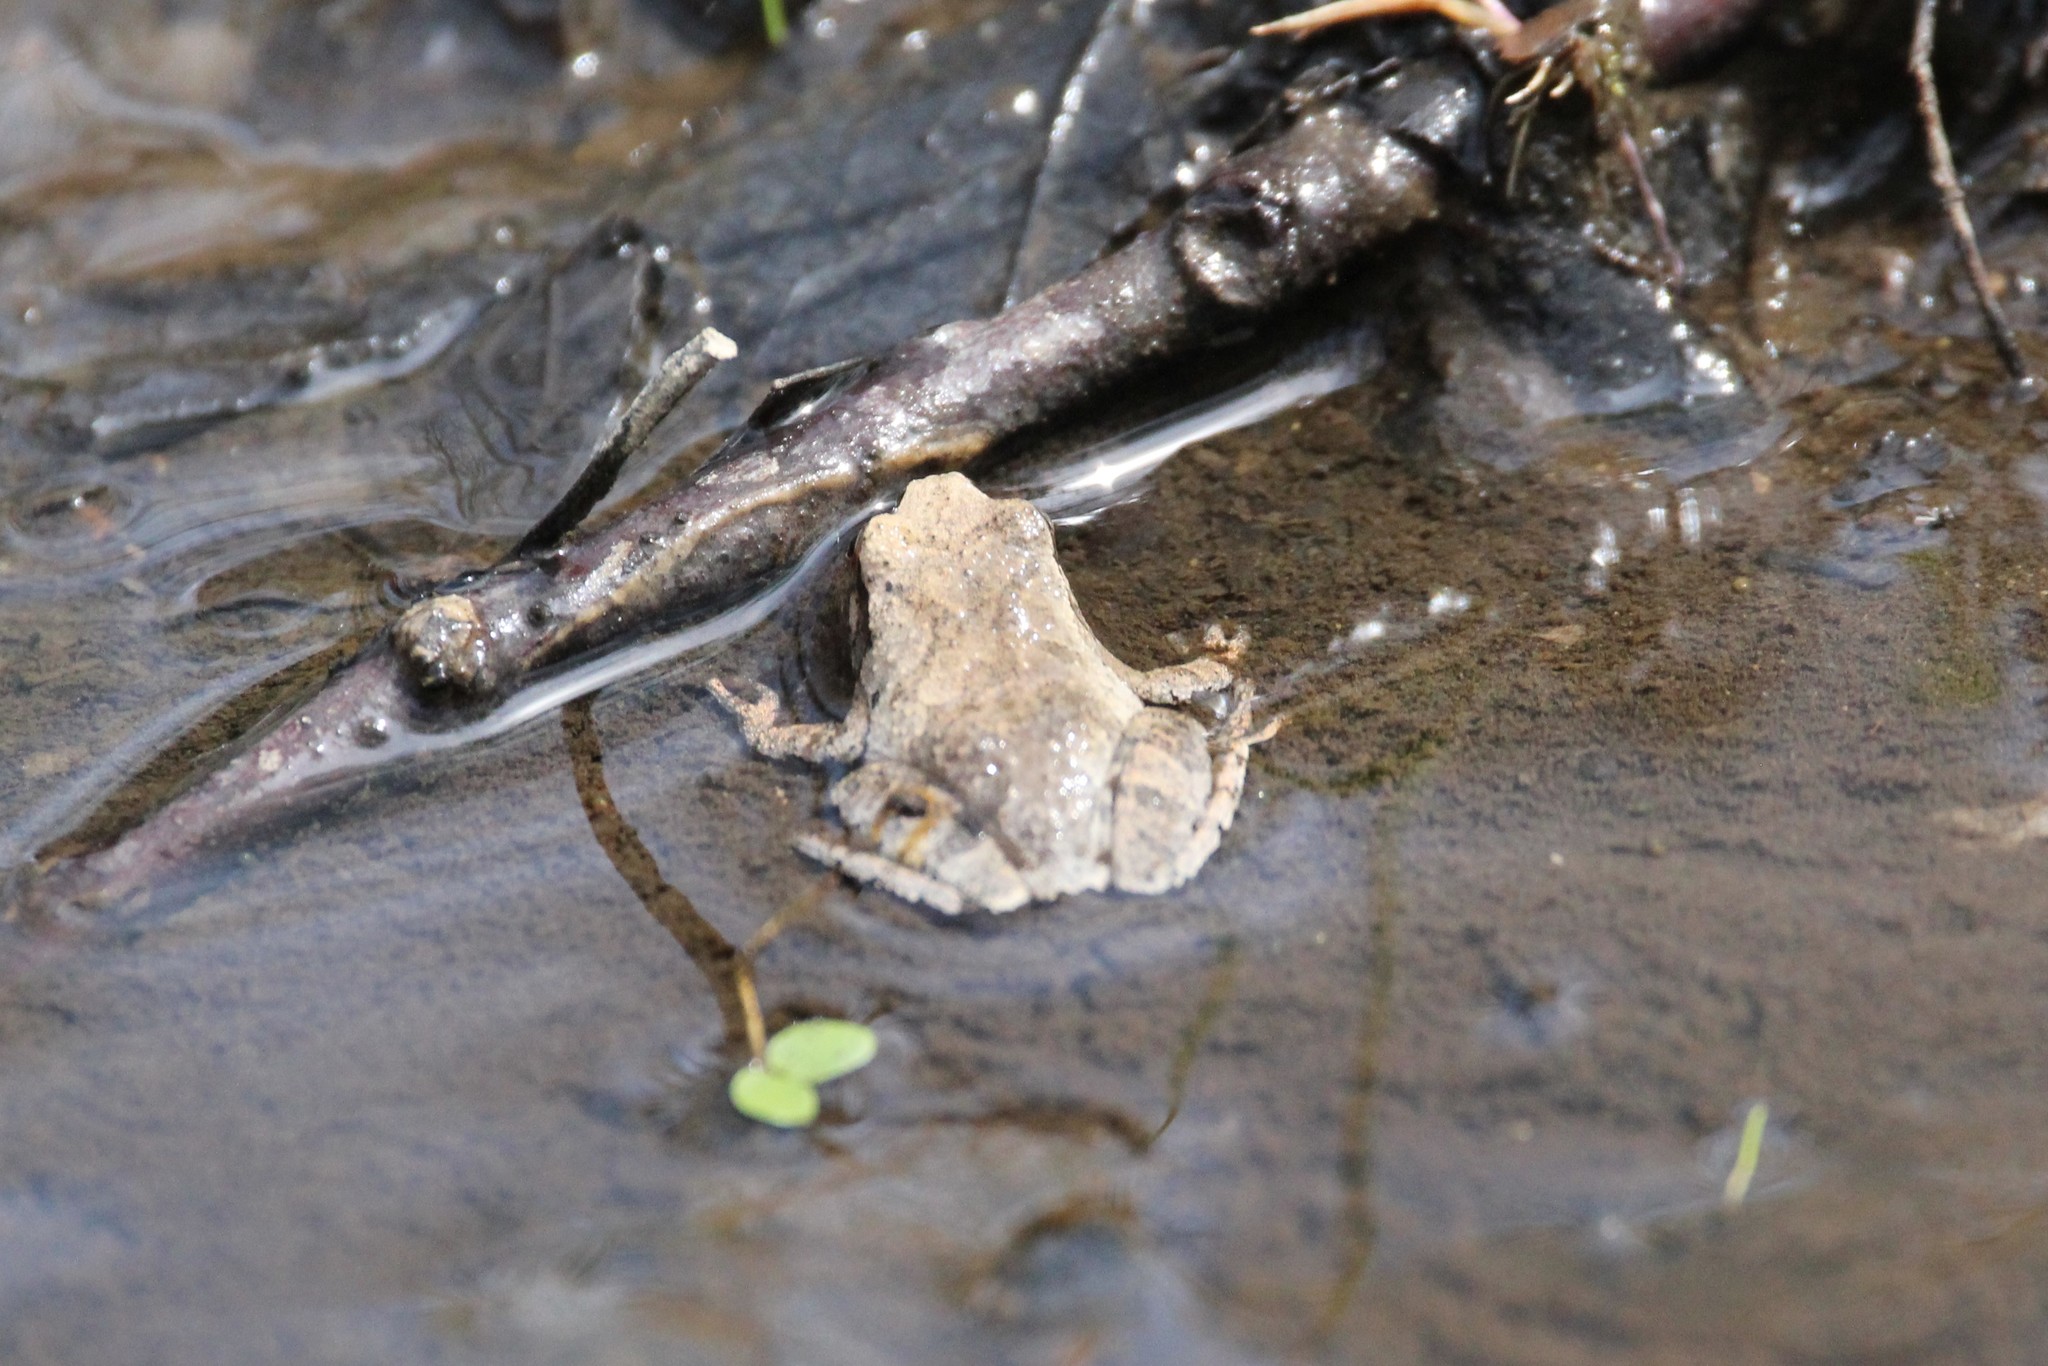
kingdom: Animalia
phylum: Chordata
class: Amphibia
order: Anura
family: Hylidae
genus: Pseudacris
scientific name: Pseudacris crucifer
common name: Spring peeper
